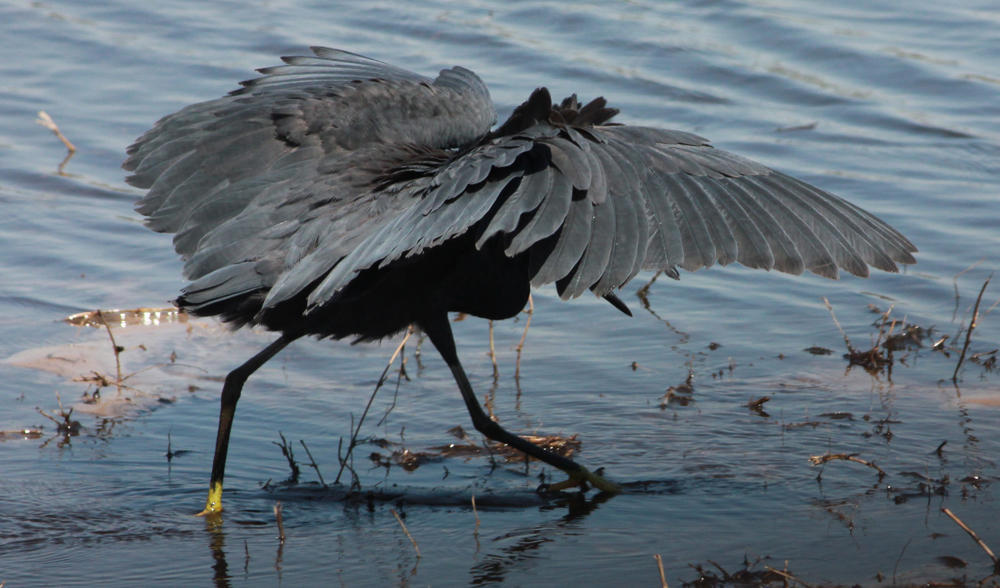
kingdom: Animalia
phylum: Chordata
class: Aves
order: Pelecaniformes
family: Ardeidae
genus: Egretta
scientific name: Egretta ardesiaca
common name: Black heron
